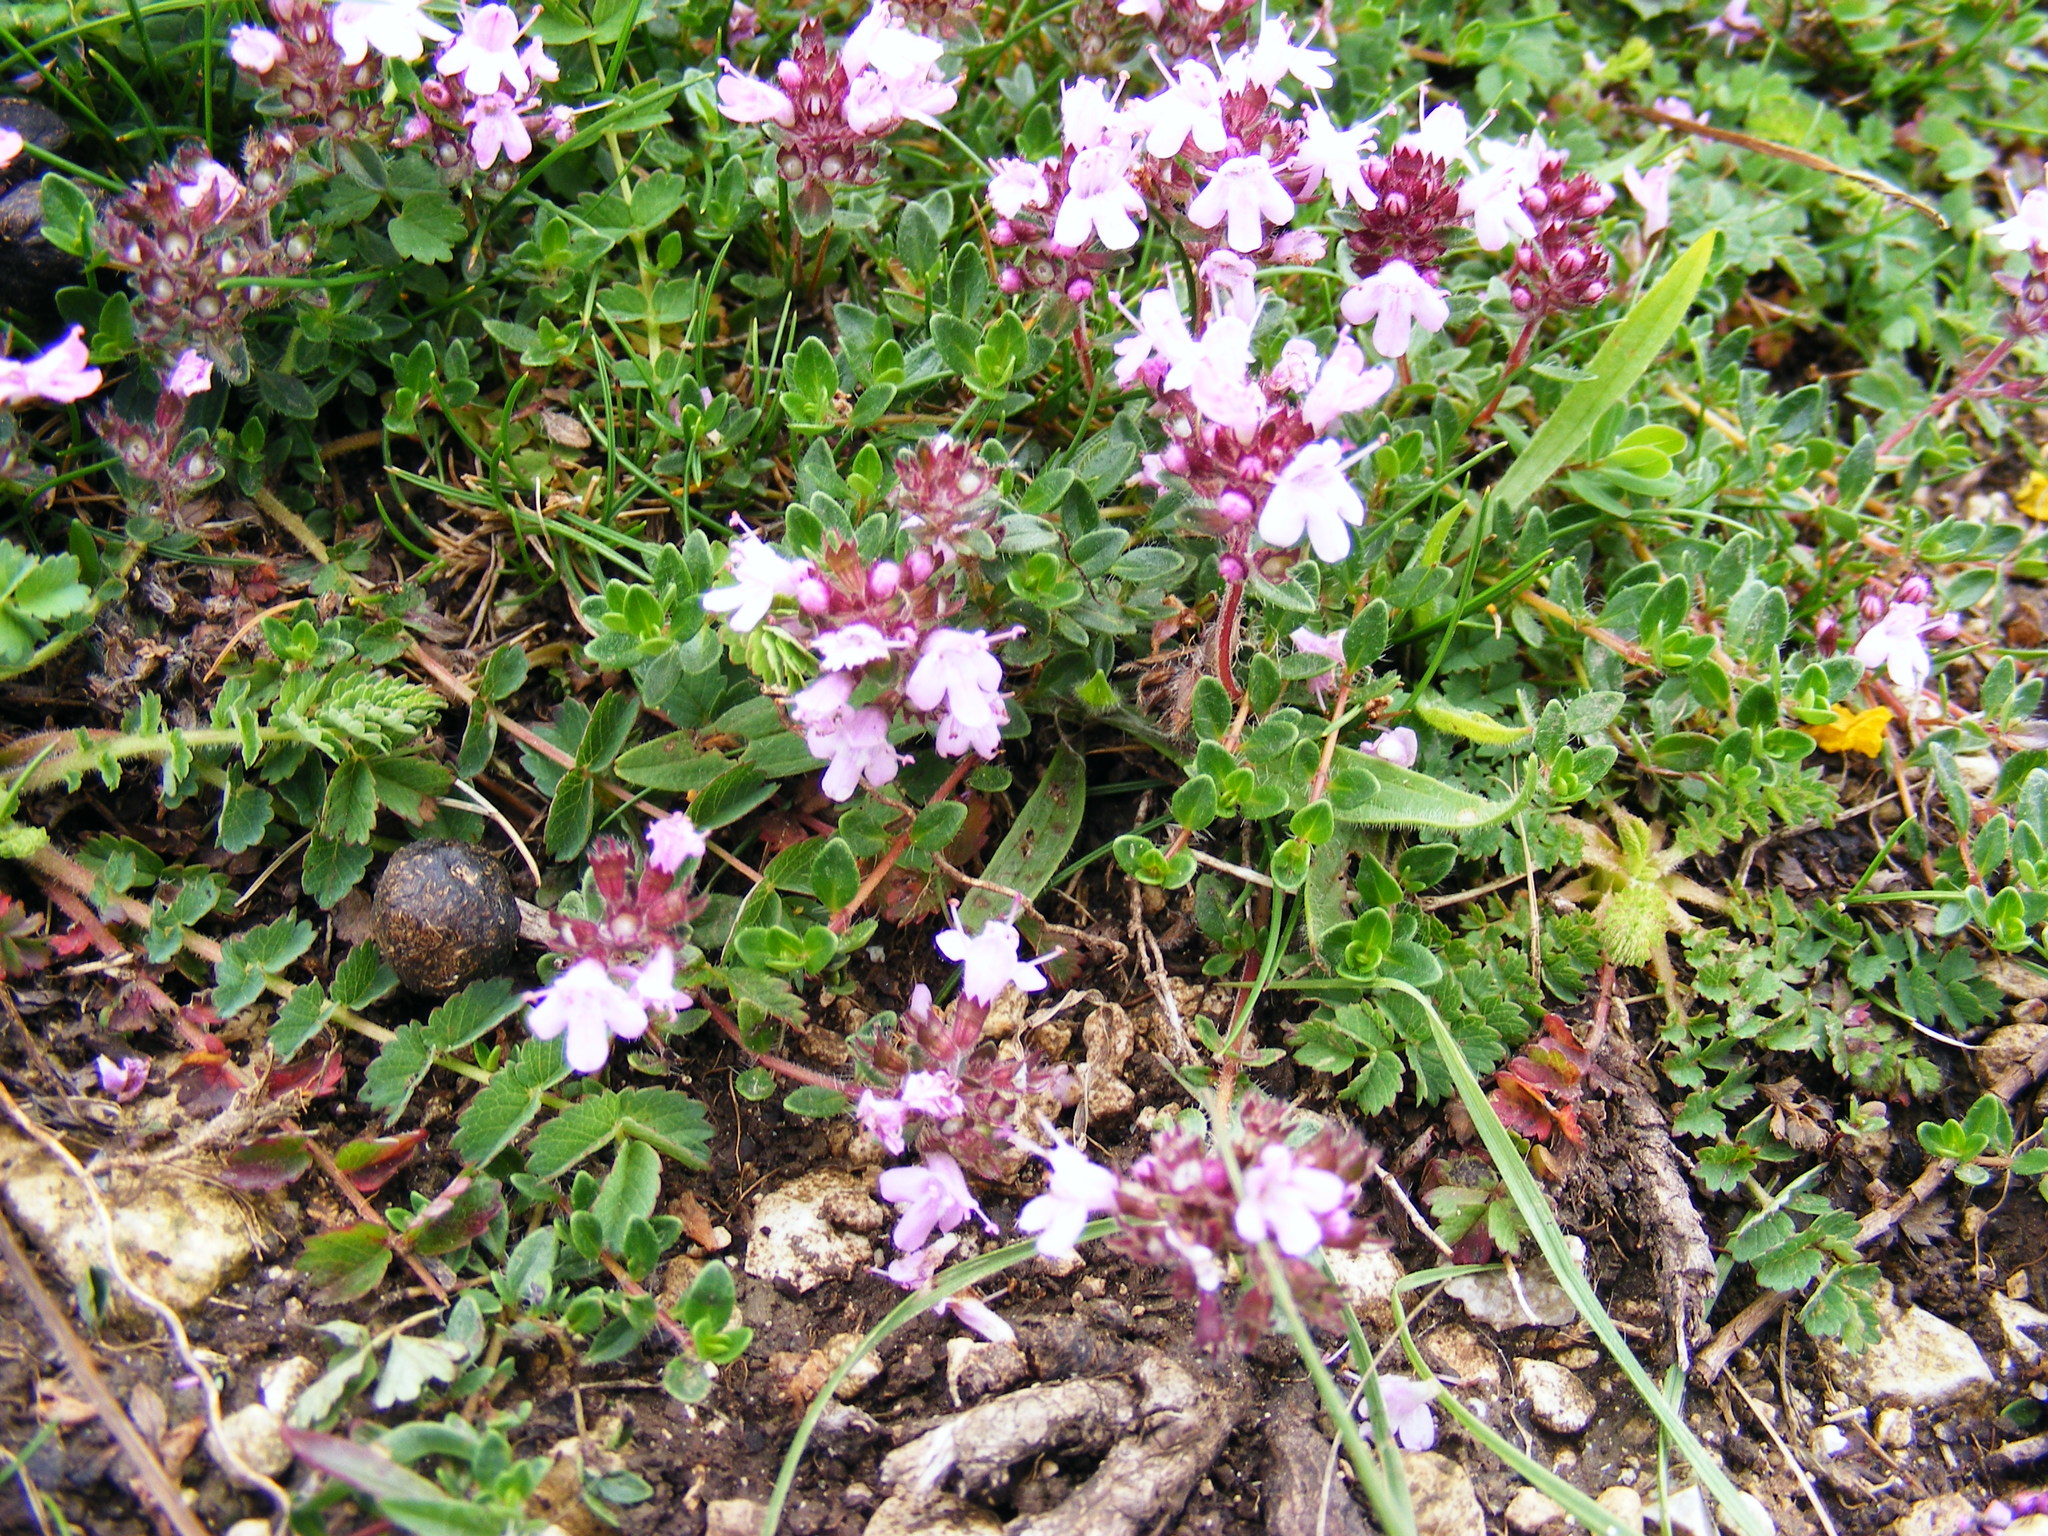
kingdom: Plantae
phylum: Tracheophyta
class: Magnoliopsida
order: Lamiales
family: Lamiaceae
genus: Thymus
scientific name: Thymus
